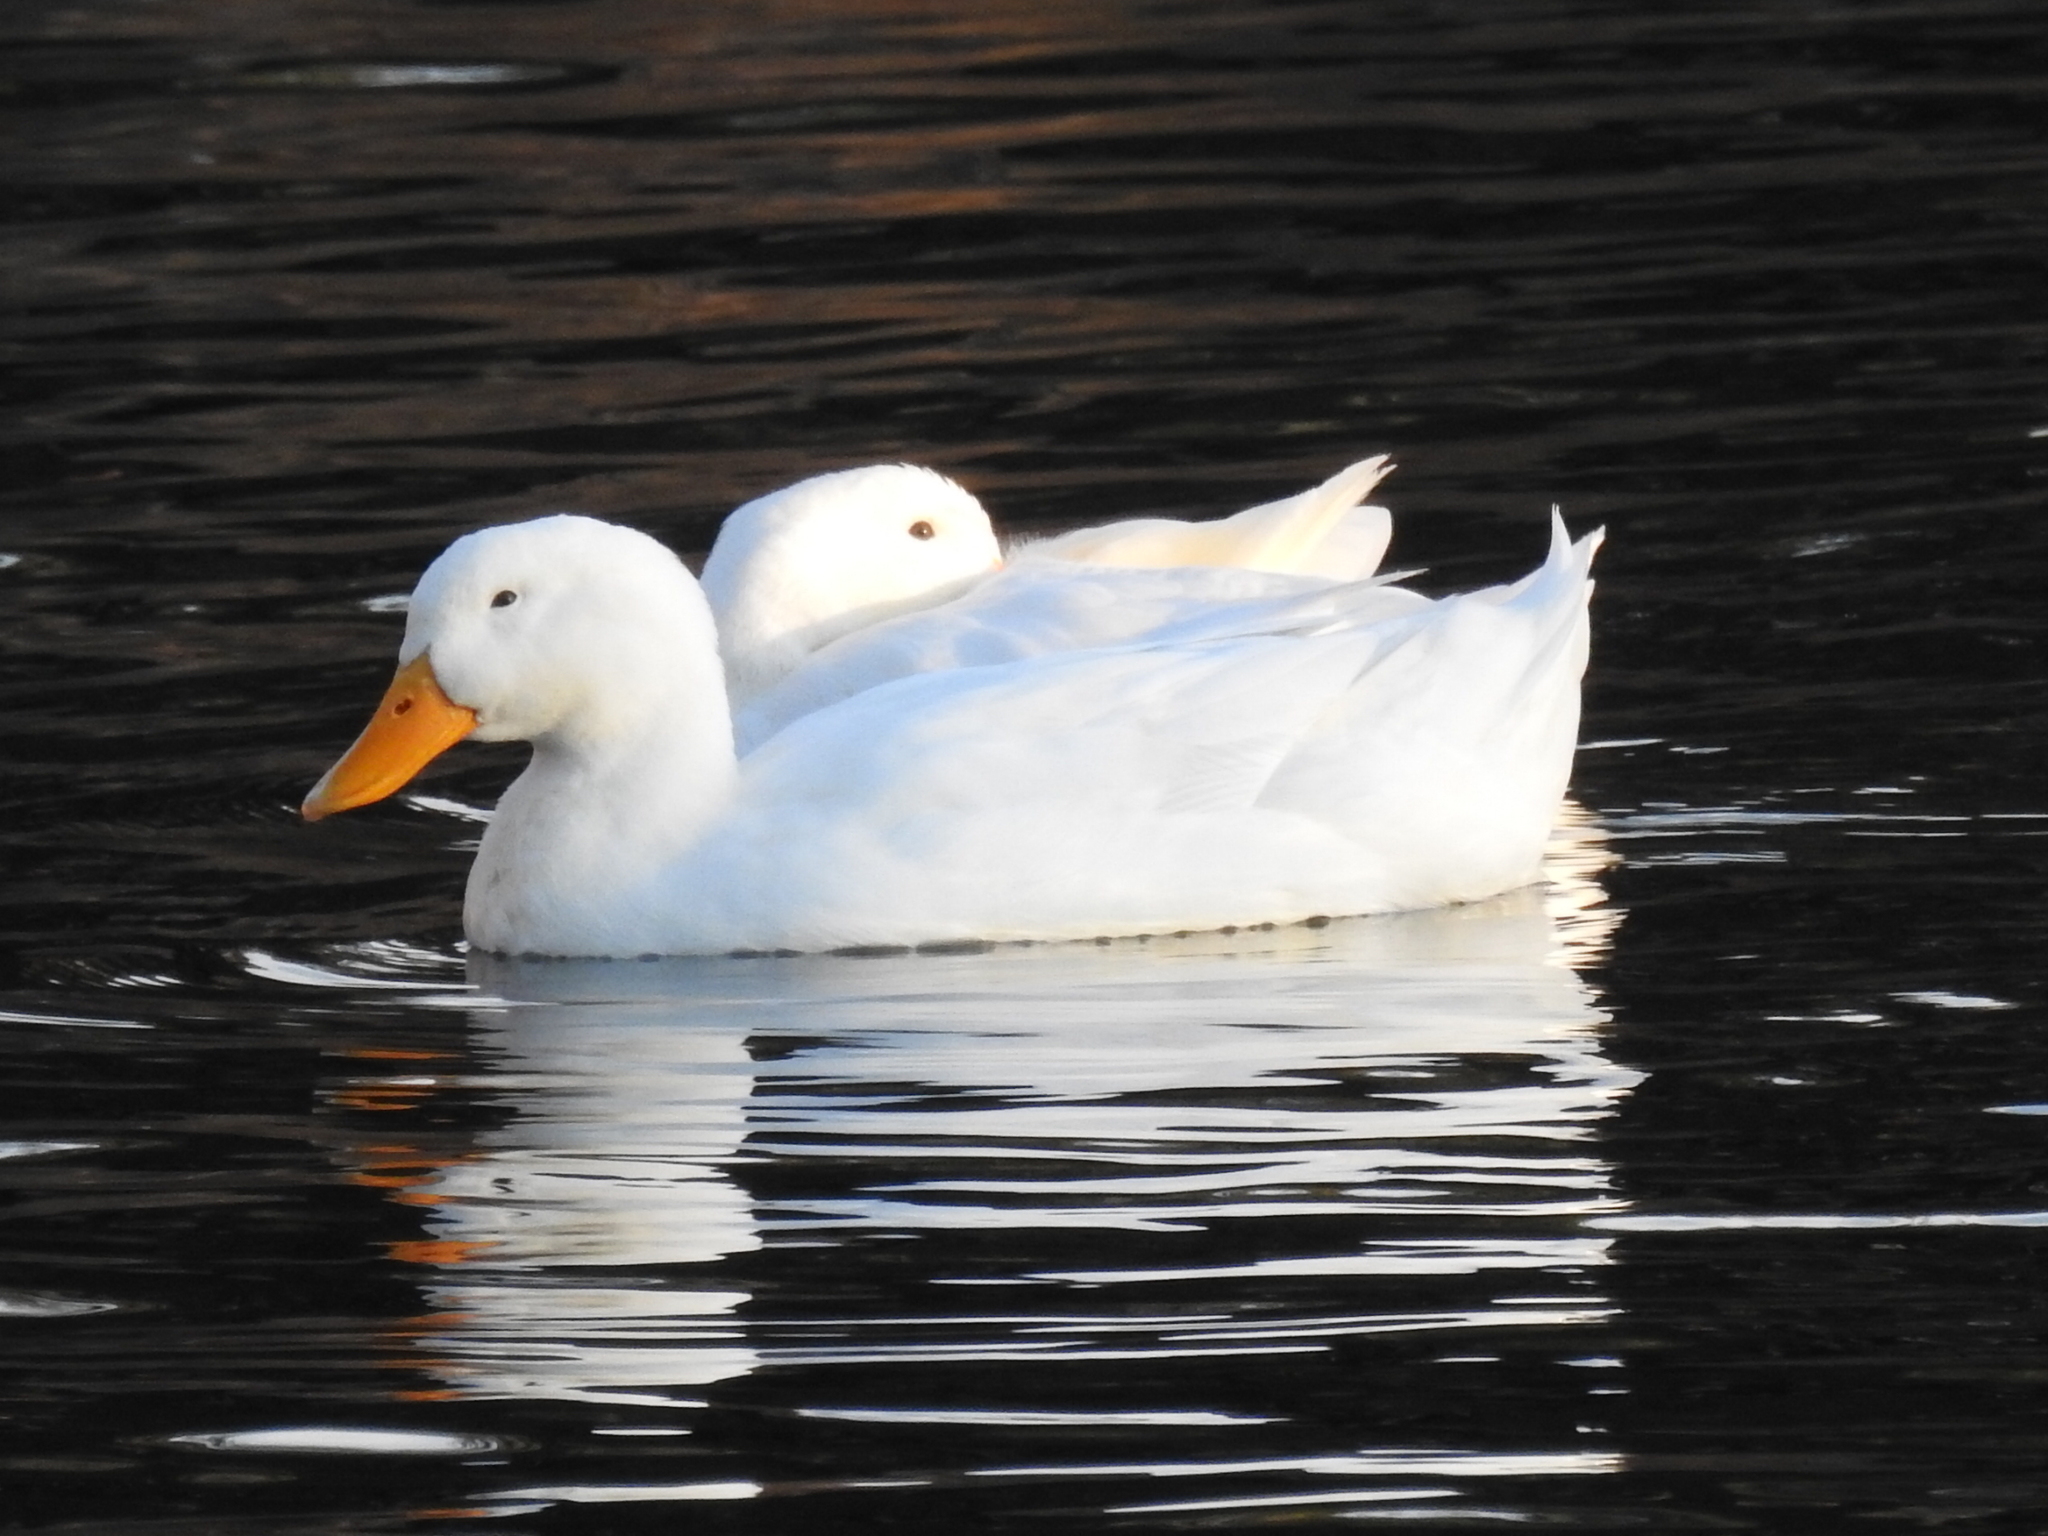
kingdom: Animalia
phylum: Chordata
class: Aves
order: Anseriformes
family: Anatidae
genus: Anas
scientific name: Anas platyrhynchos
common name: Mallard
